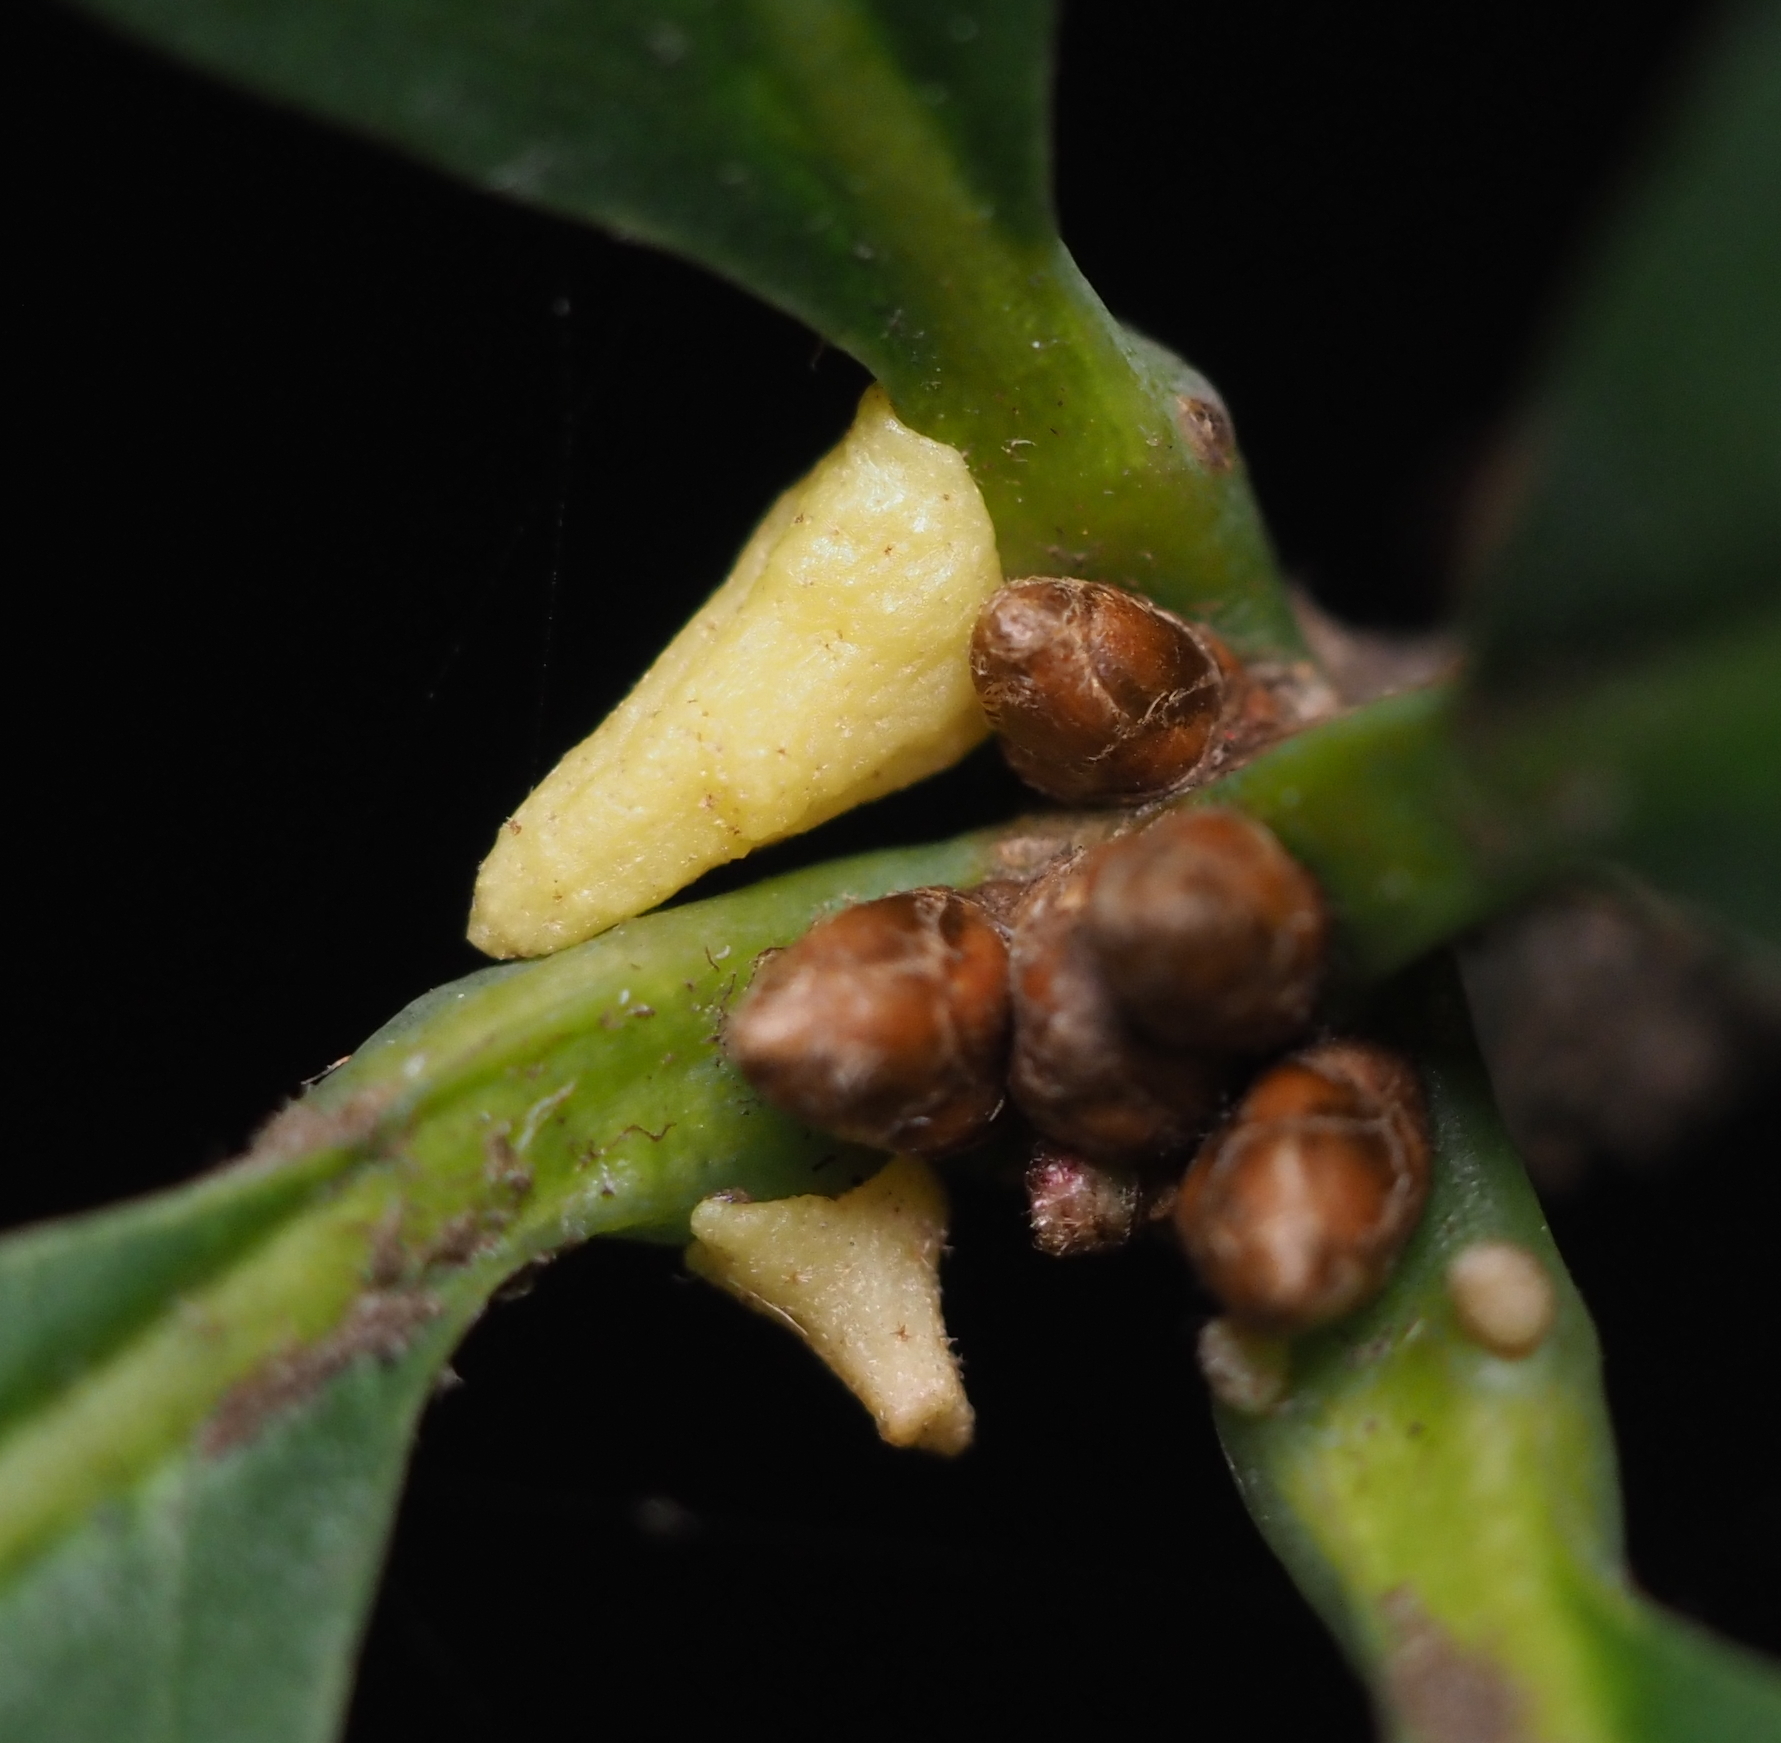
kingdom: Animalia
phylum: Arthropoda
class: Insecta
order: Hymenoptera
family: Cynipidae
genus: Zopheroteras
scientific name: Zopheroteras
